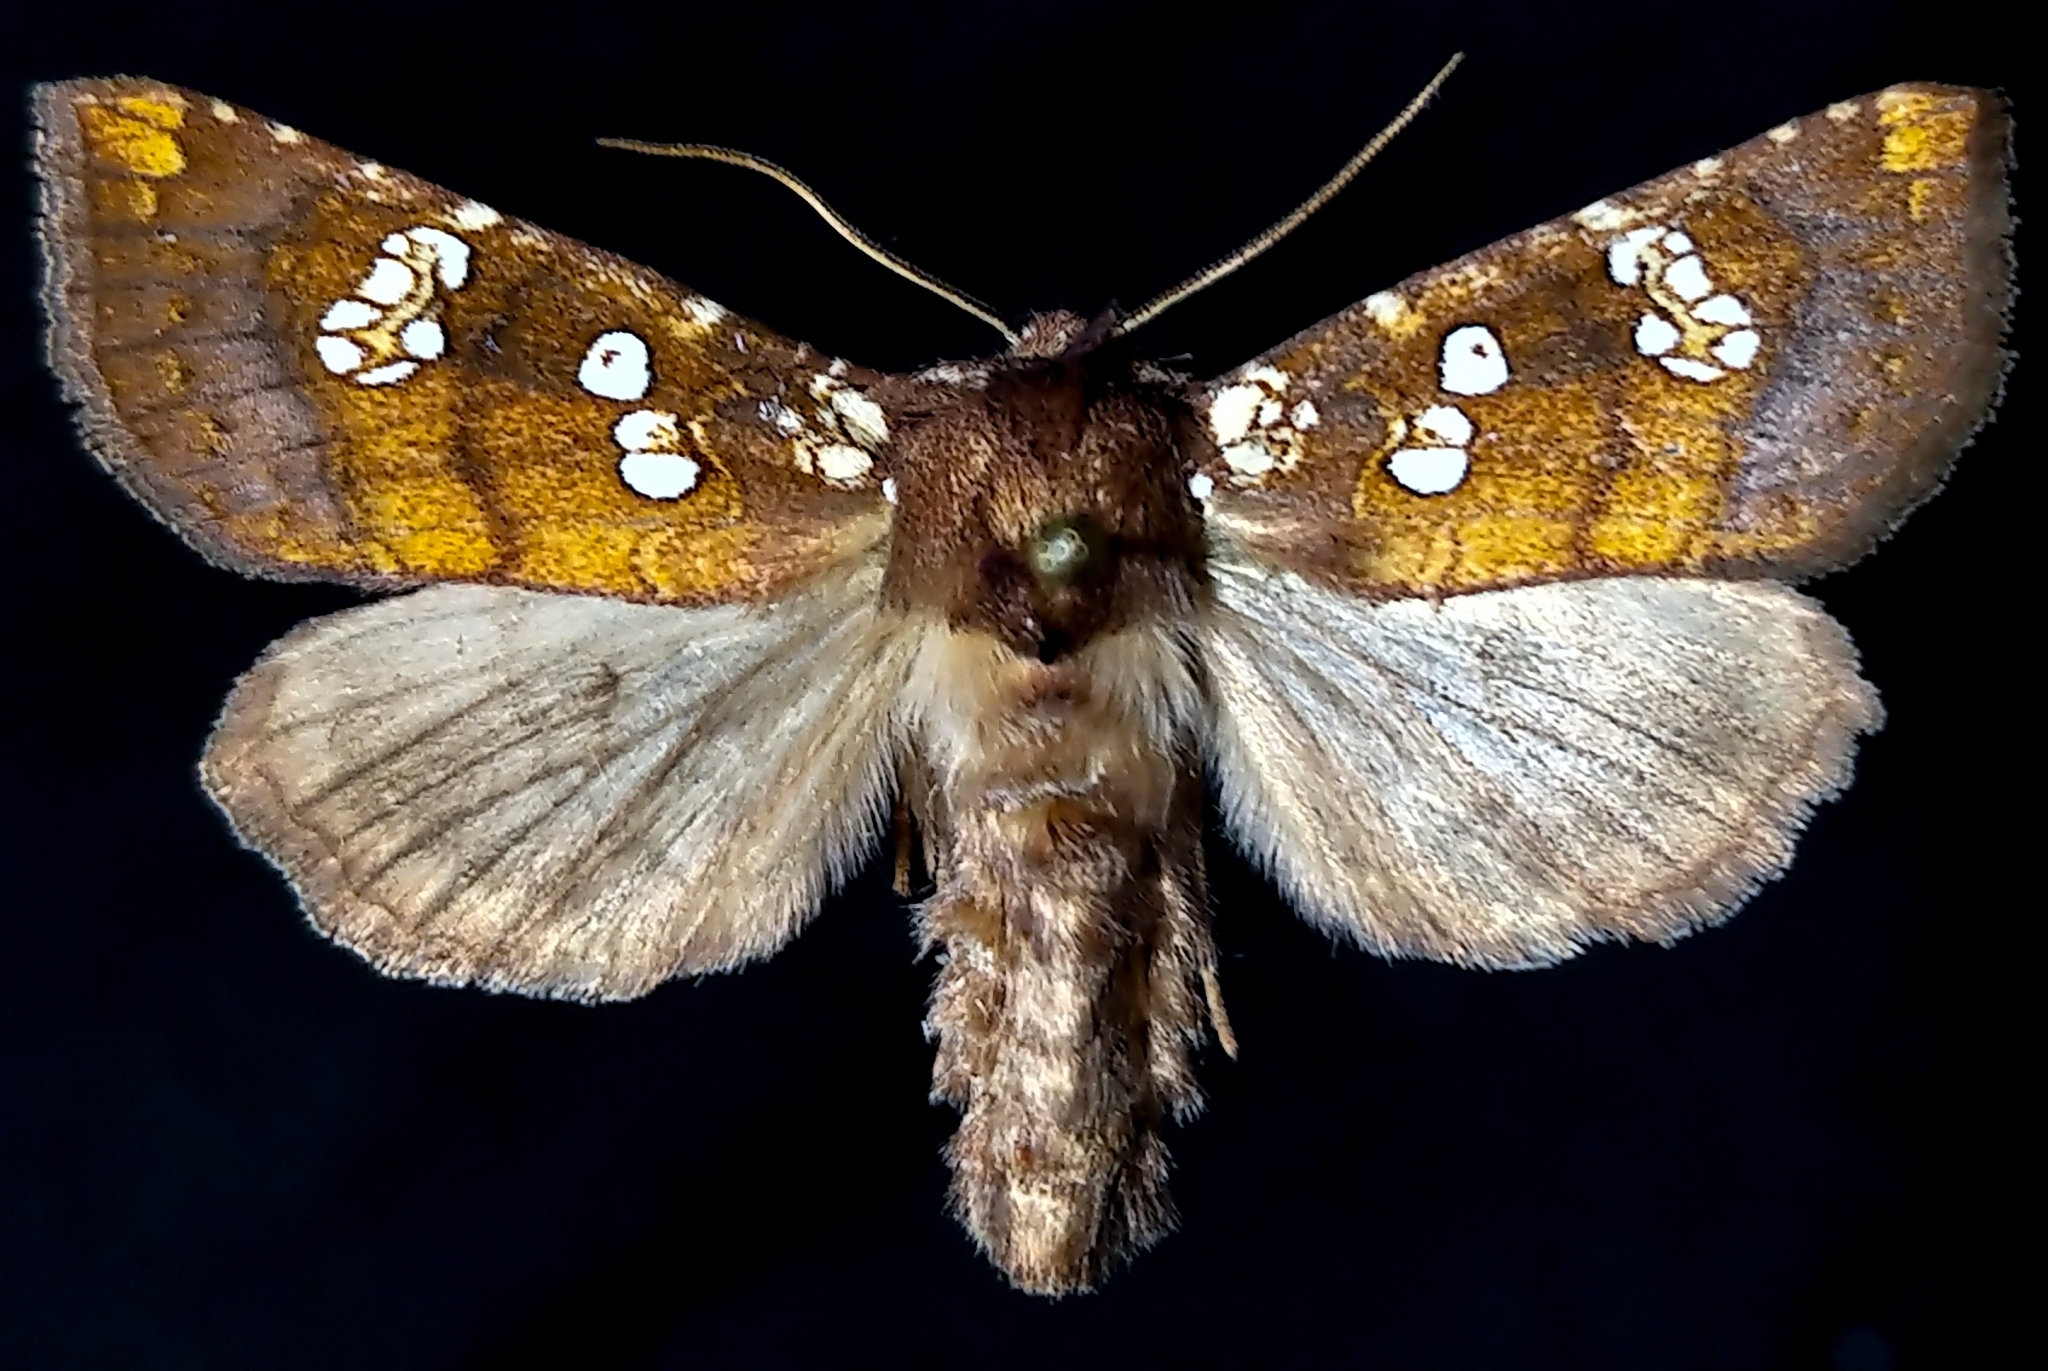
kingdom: Animalia
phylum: Arthropoda
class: Insecta
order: Lepidoptera
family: Noctuidae
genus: Papaipema
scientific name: Papaipema insulidens
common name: Ragwort stem borer moth
